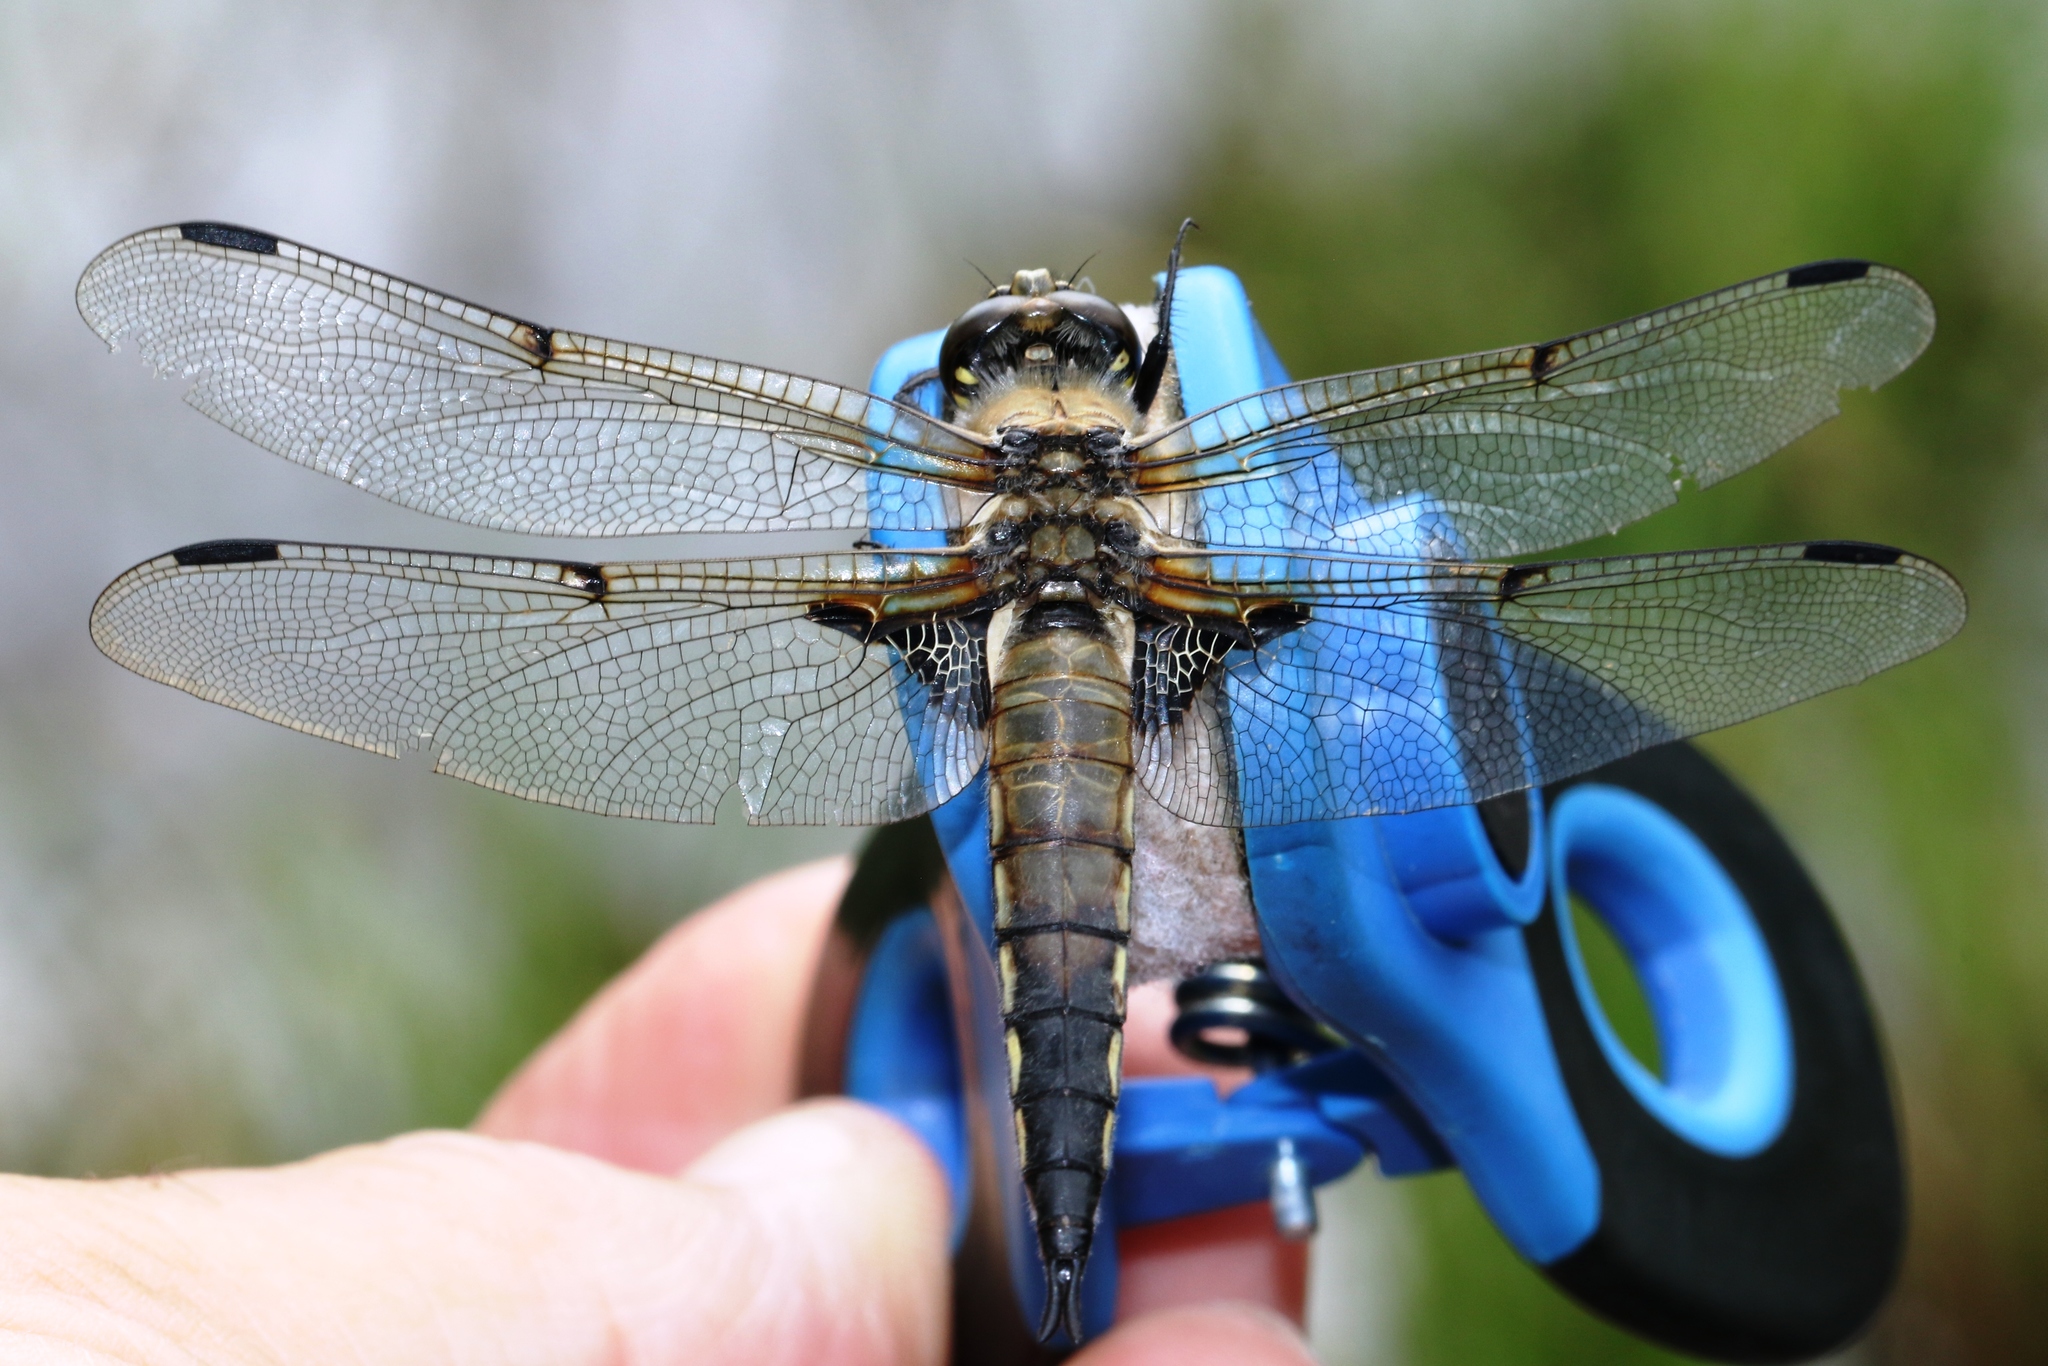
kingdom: Animalia
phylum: Arthropoda
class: Insecta
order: Odonata
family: Libellulidae
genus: Libellula
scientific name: Libellula quadrimaculata
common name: Four-spotted chaser
